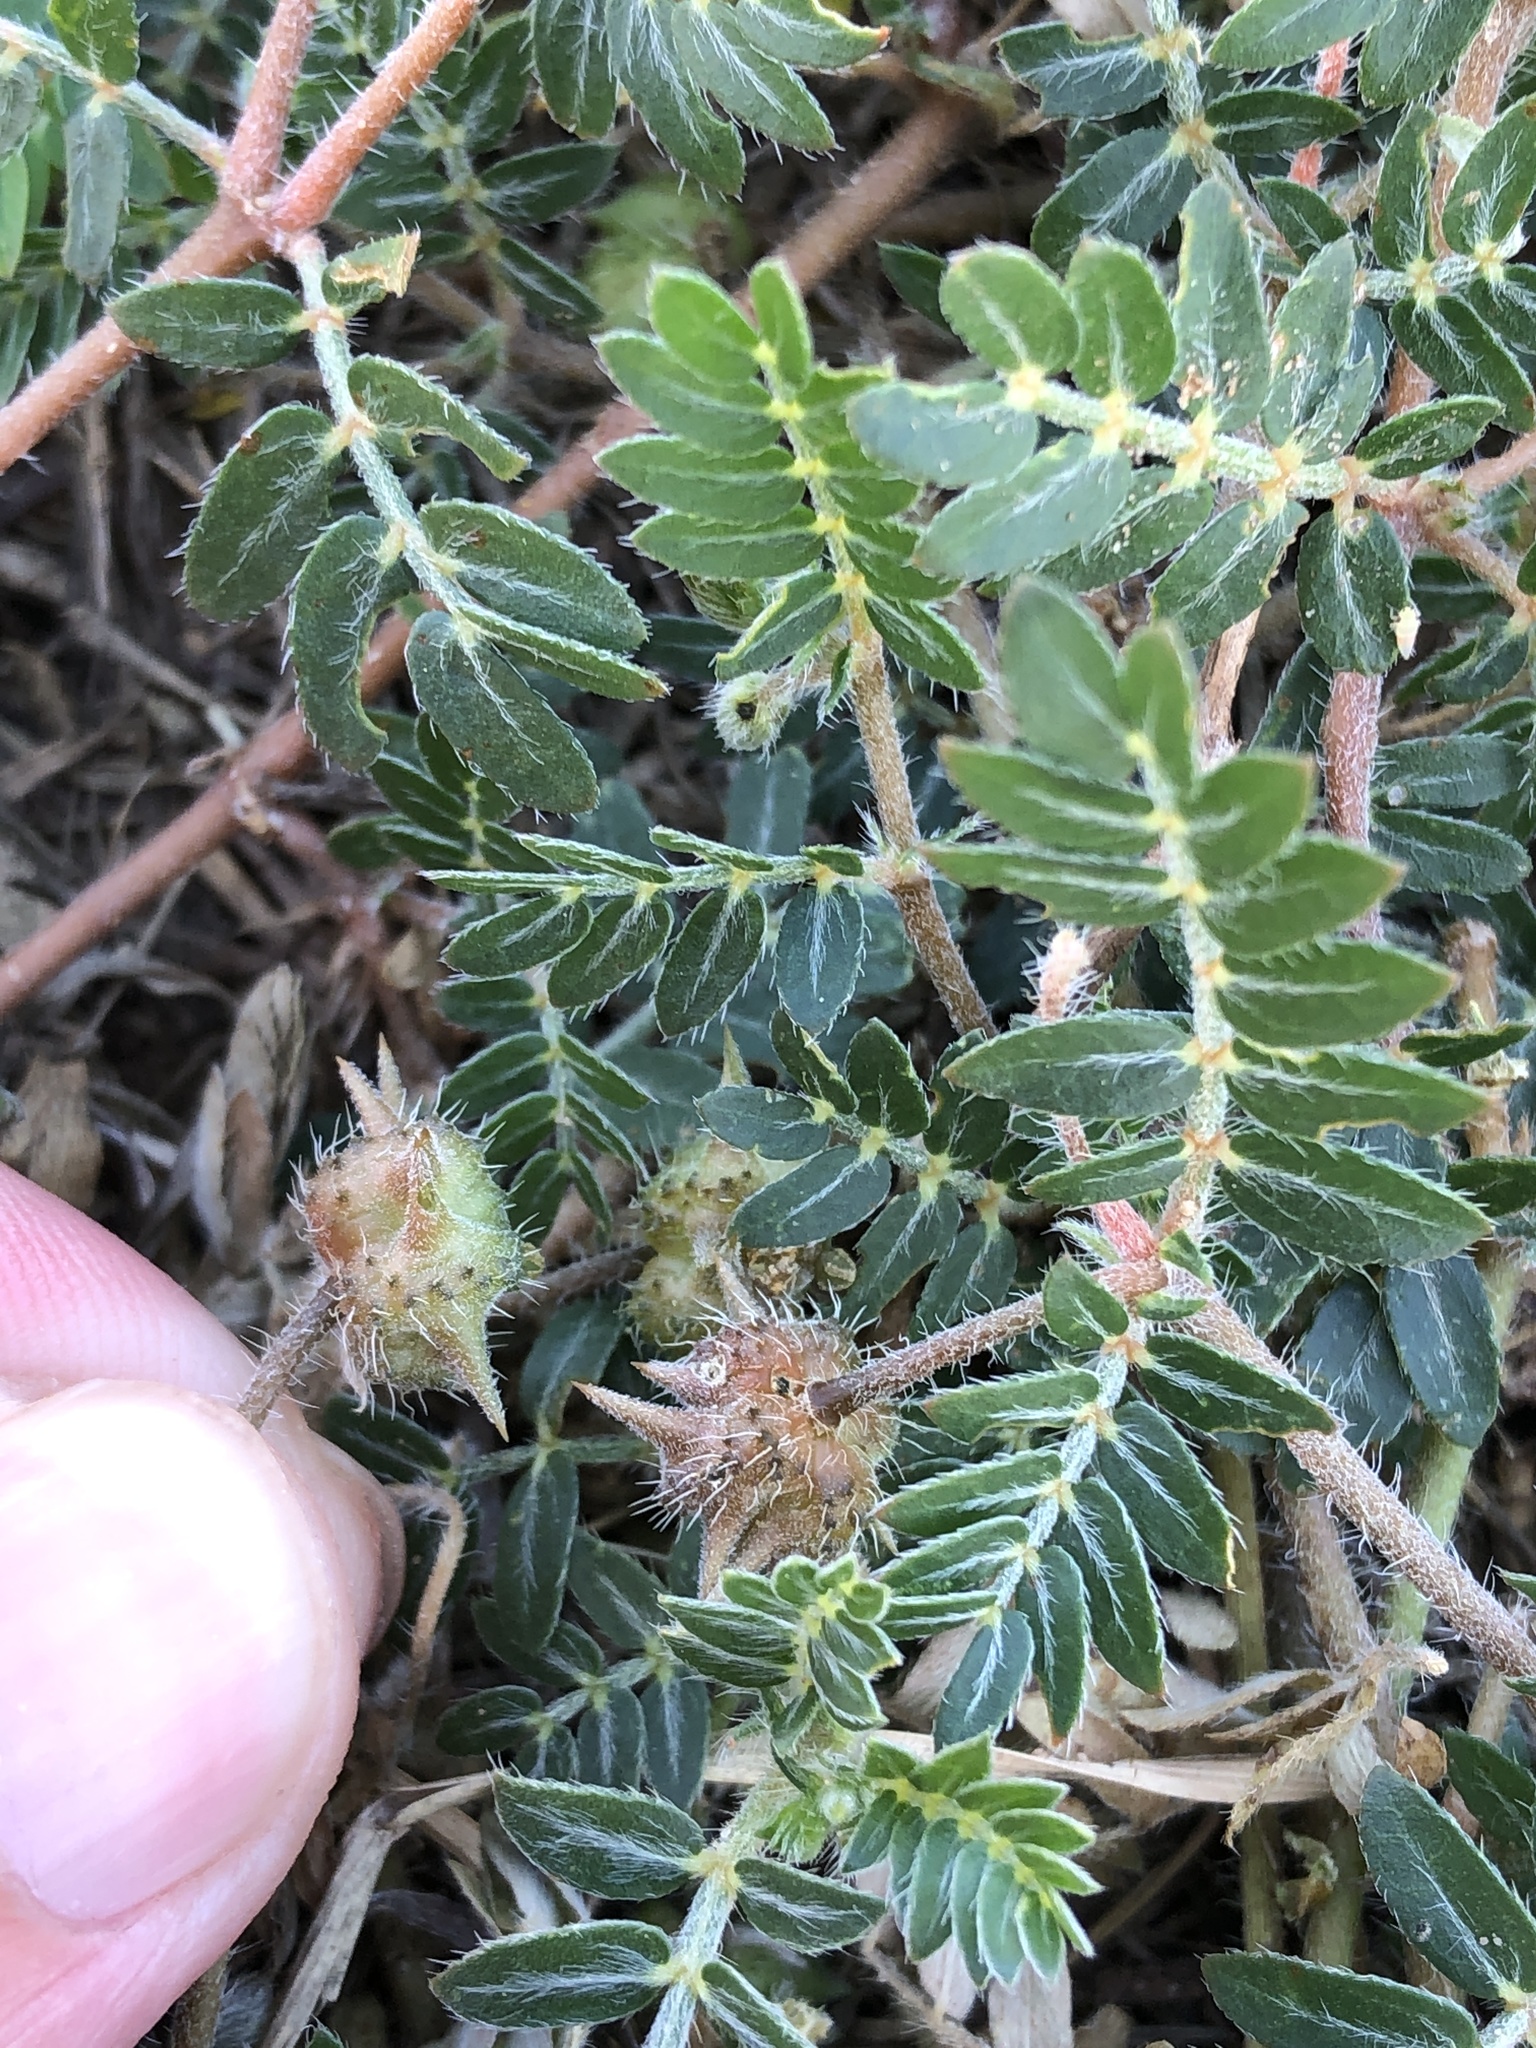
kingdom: Plantae
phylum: Tracheophyta
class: Magnoliopsida
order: Zygophyllales
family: Zygophyllaceae
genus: Tribulus
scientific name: Tribulus terrestris
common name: Puncturevine
